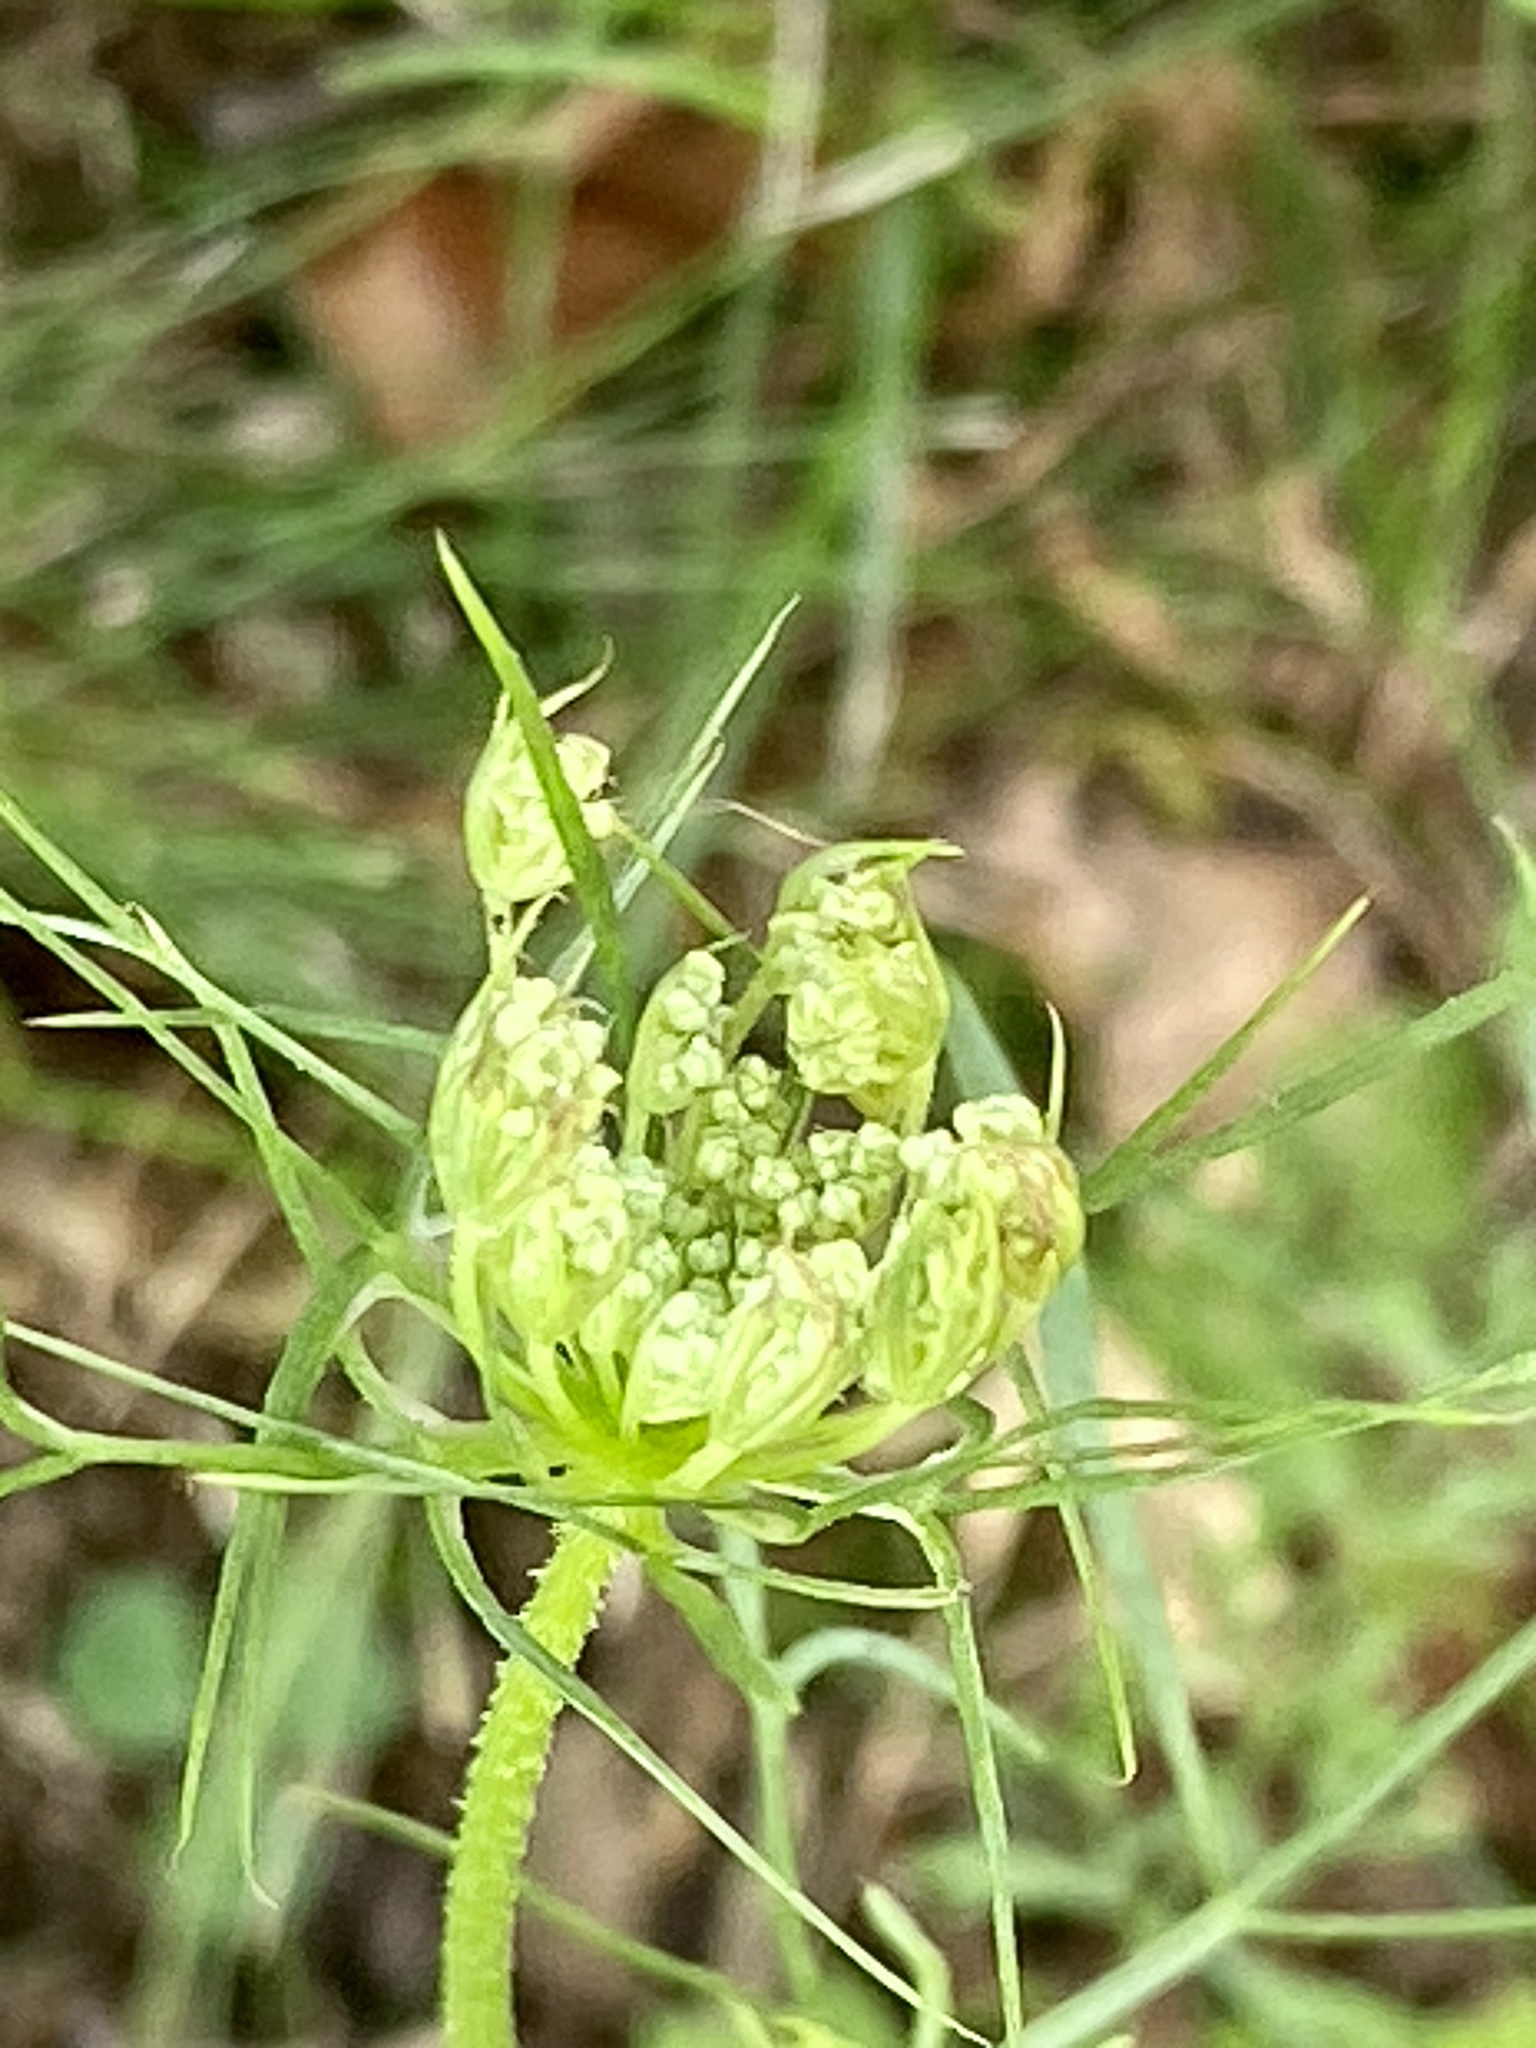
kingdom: Plantae
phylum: Tracheophyta
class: Magnoliopsida
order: Apiales
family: Apiaceae
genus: Daucus
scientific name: Daucus carota
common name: Wild carrot
